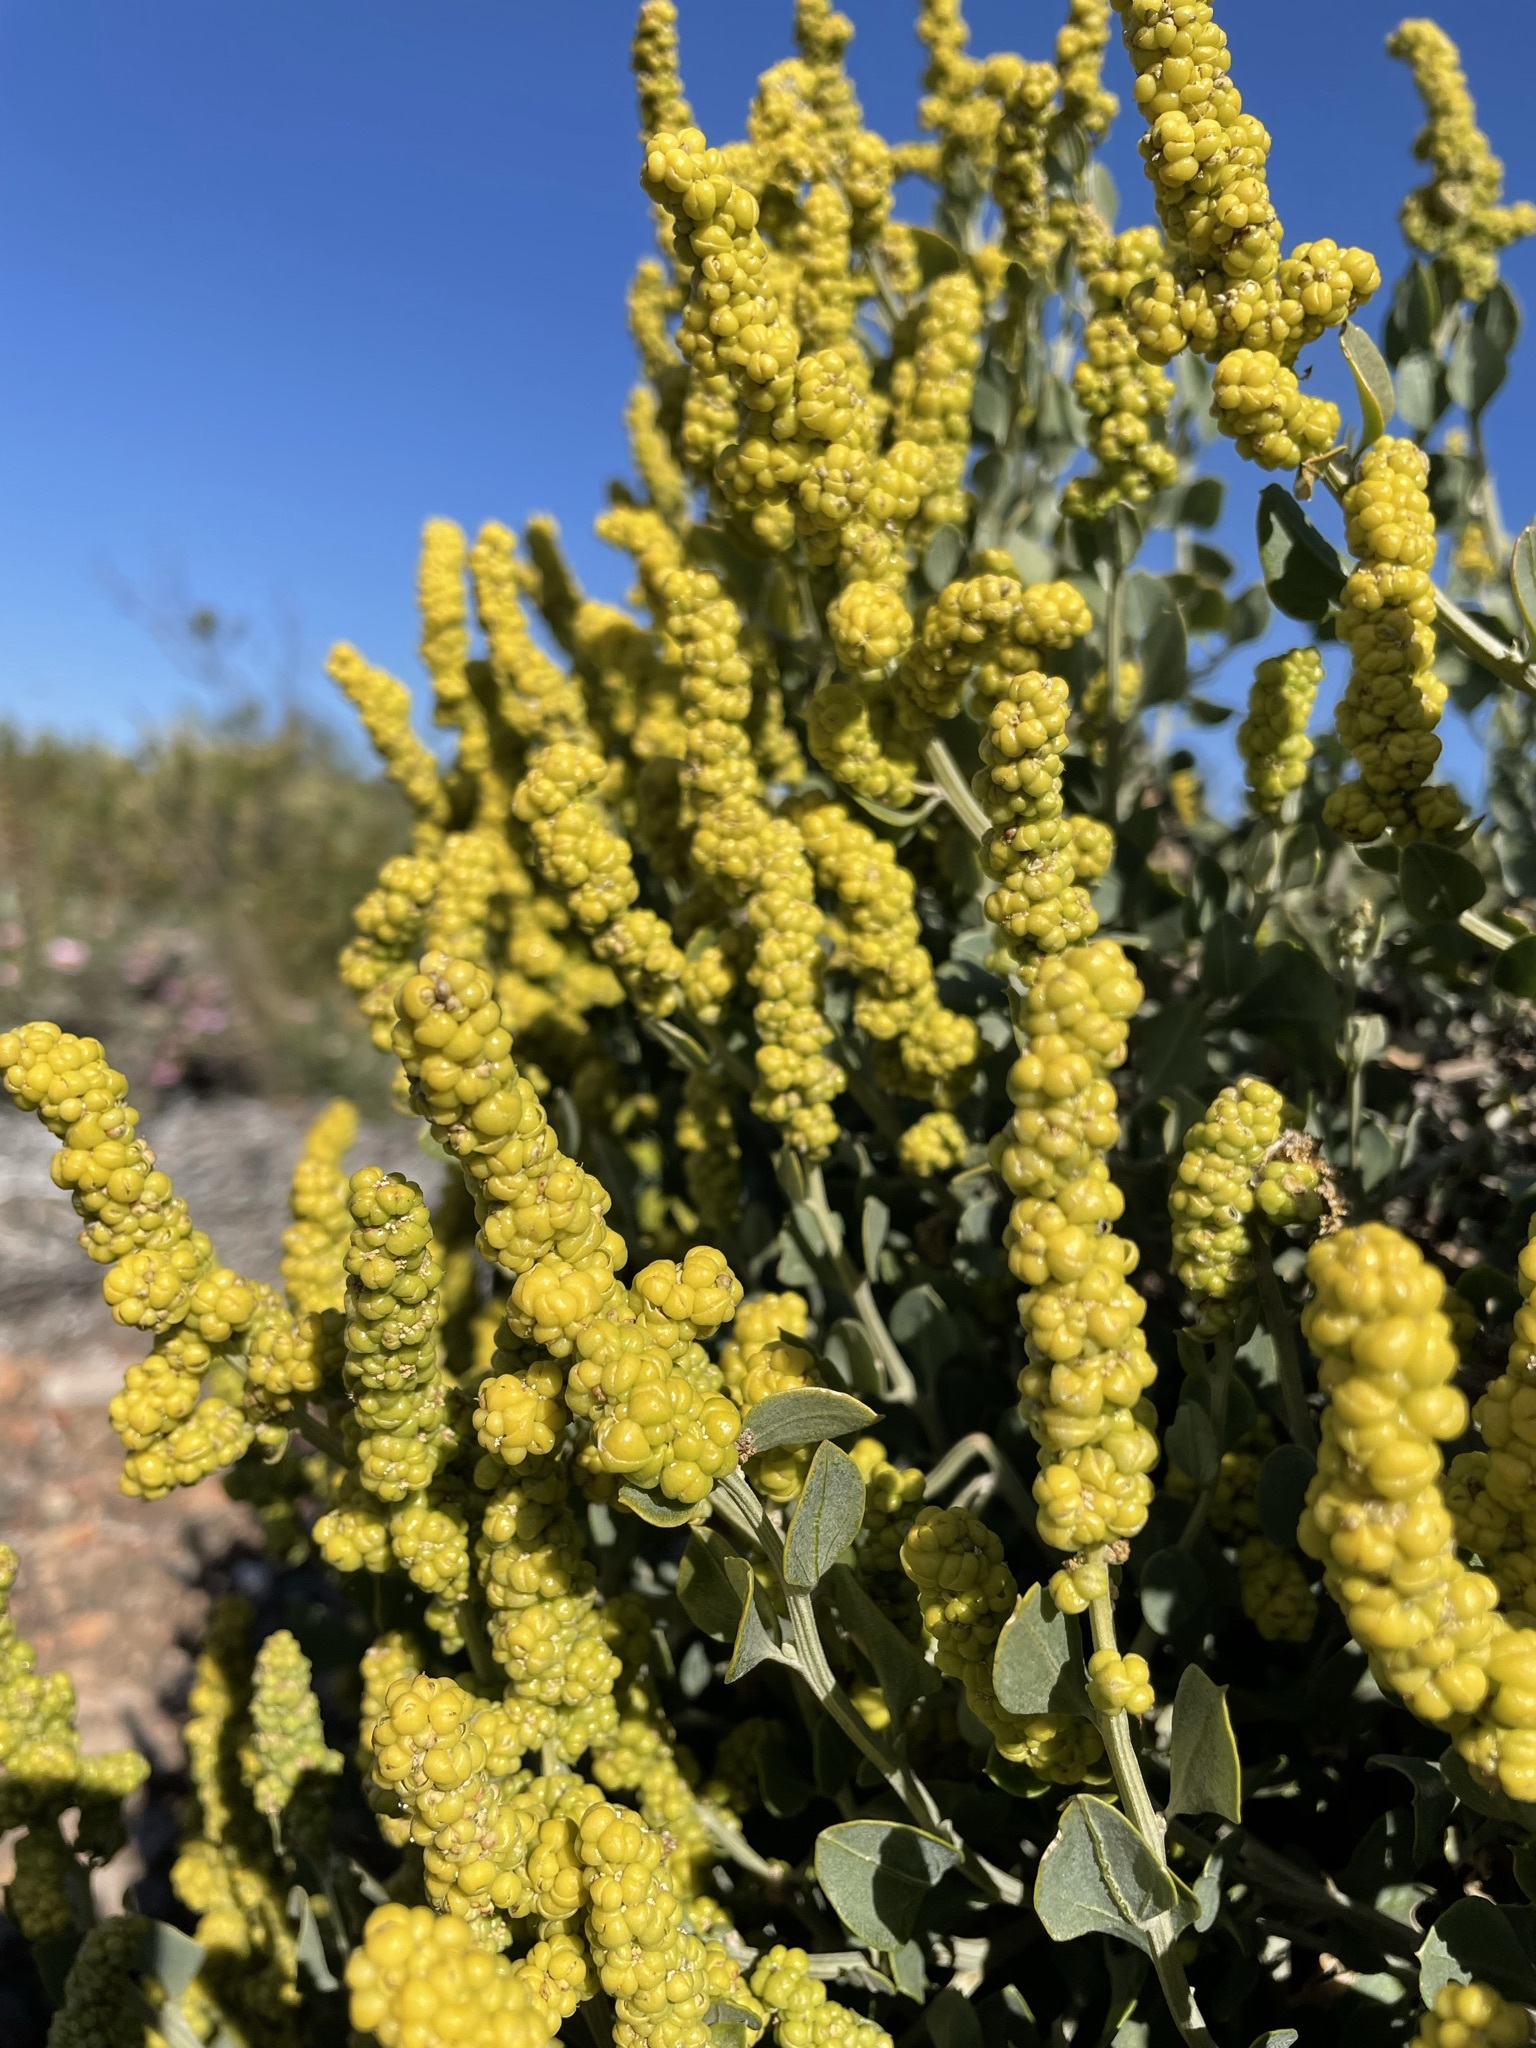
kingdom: Plantae
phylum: Tracheophyta
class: Magnoliopsida
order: Caryophyllales
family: Amaranthaceae
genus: Exomis
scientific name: Exomis albicans
